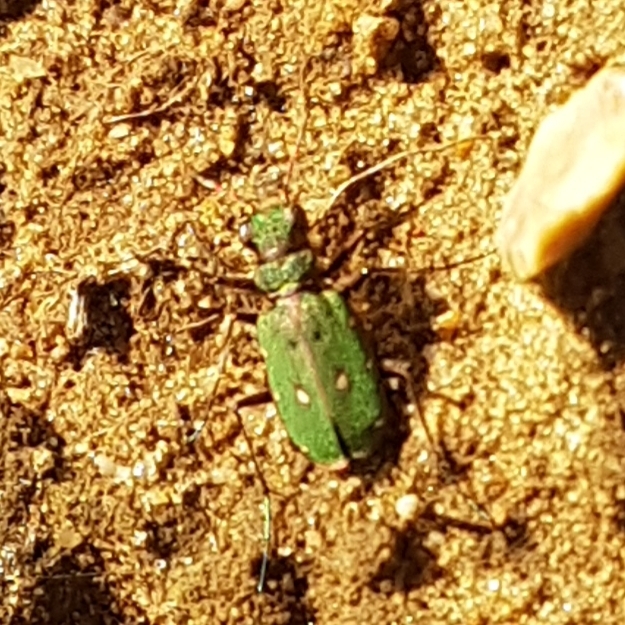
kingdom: Animalia
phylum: Arthropoda
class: Insecta
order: Coleoptera
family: Carabidae
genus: Cicindela
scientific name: Cicindela campestris
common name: Common tiger beetle
